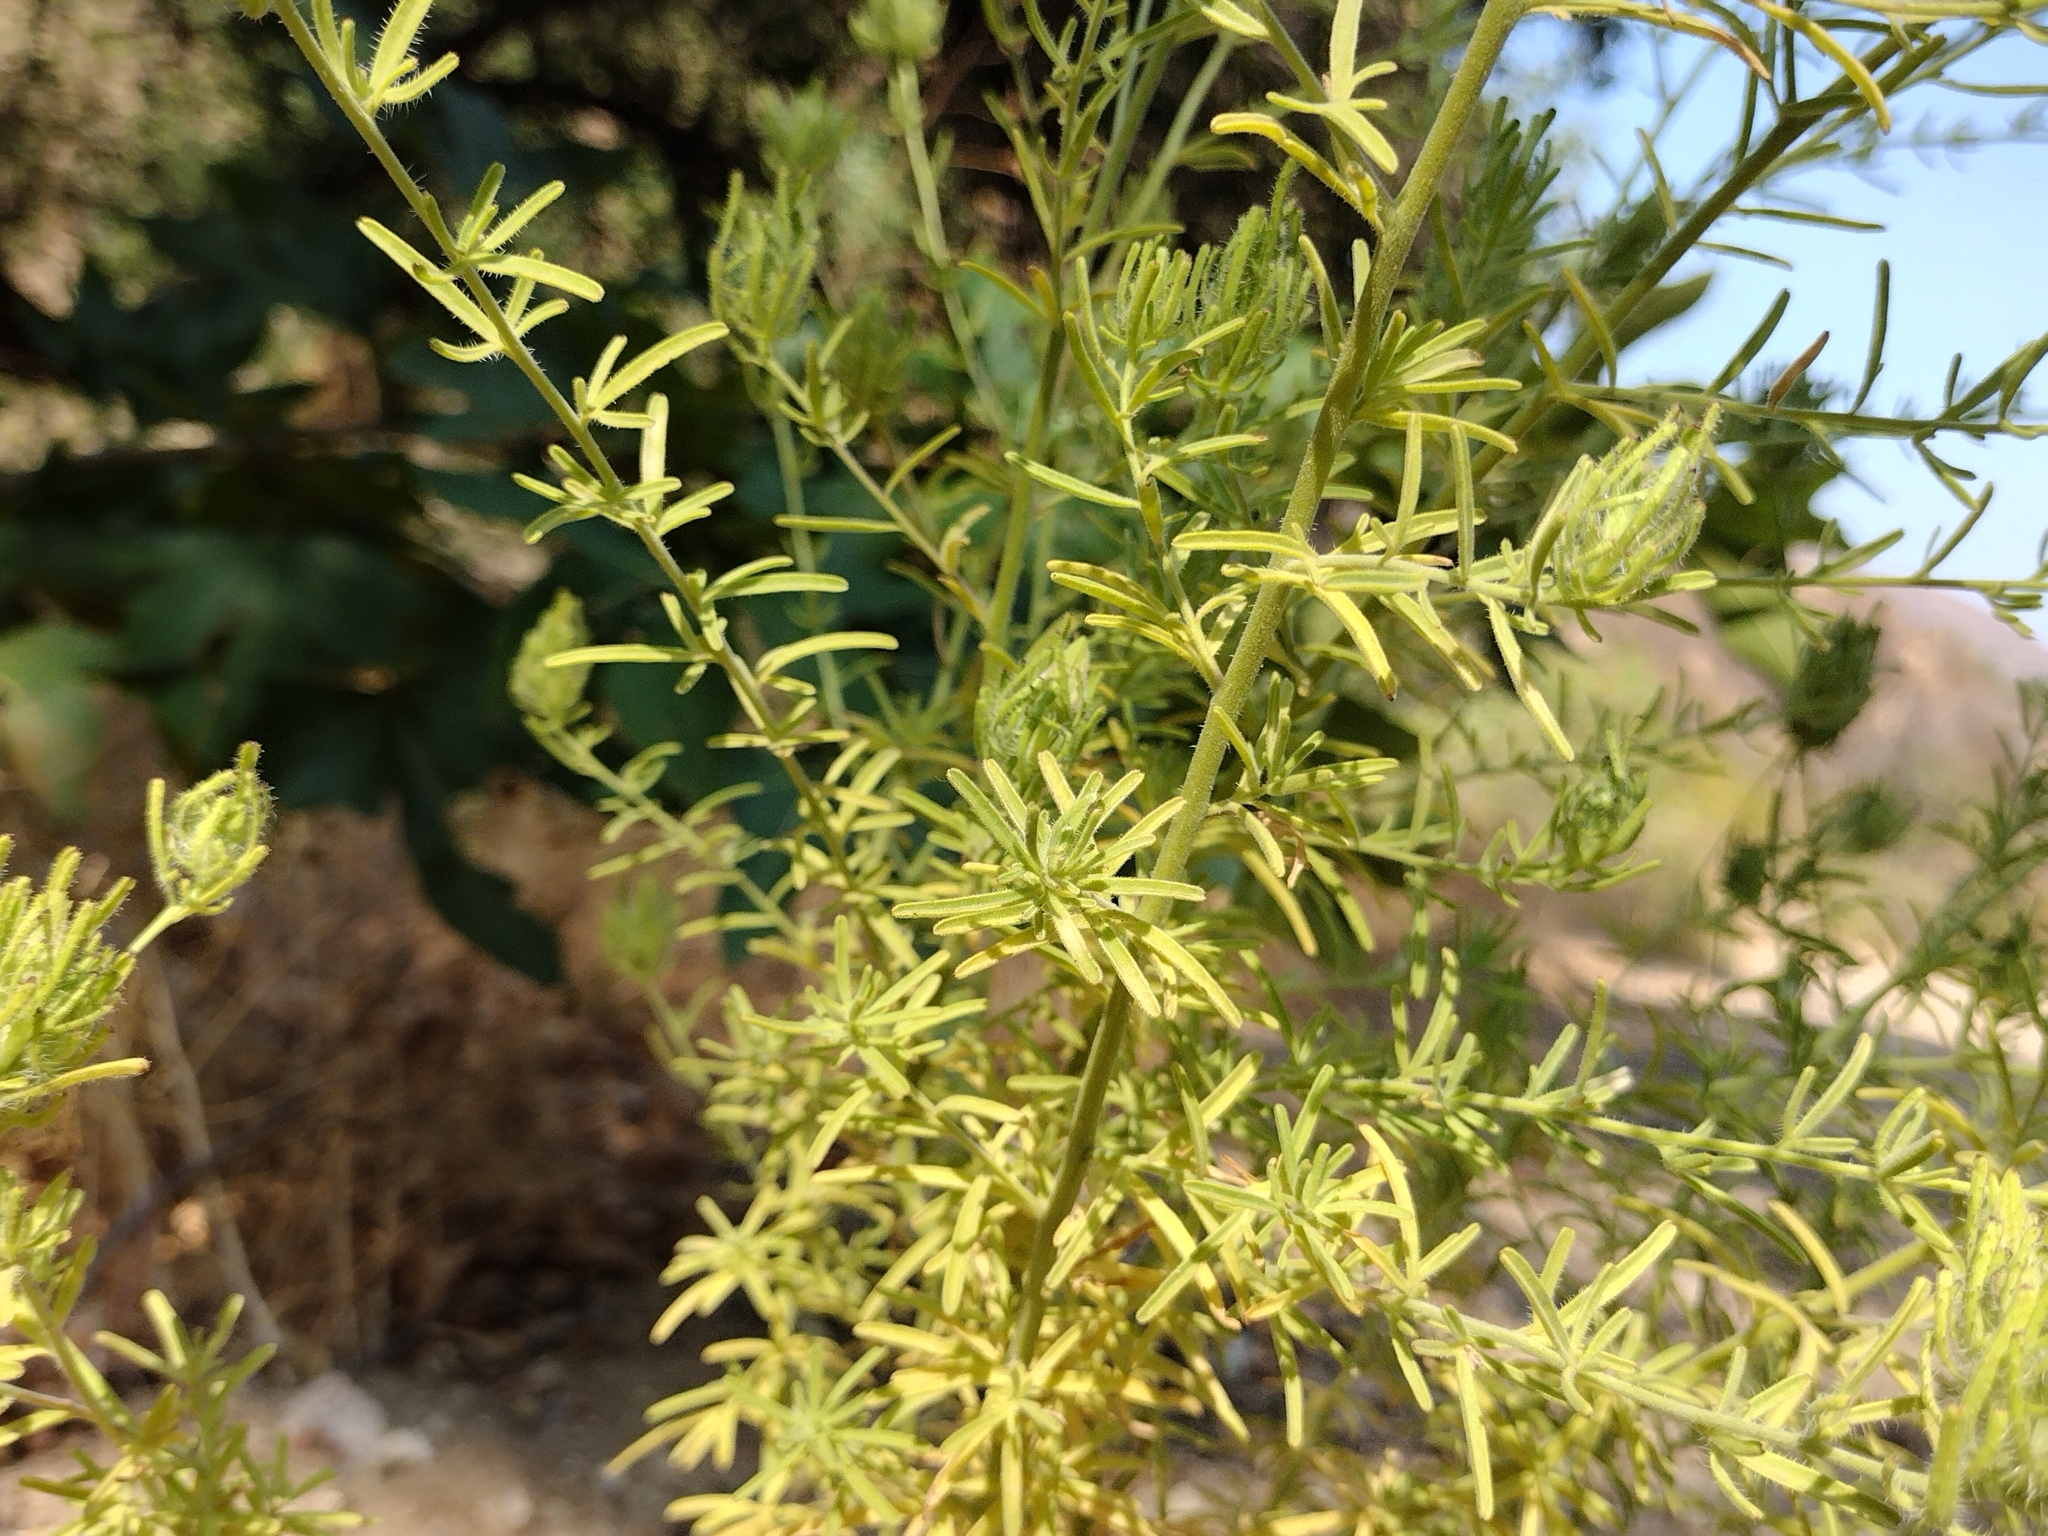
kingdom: Plantae
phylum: Tracheophyta
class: Magnoliopsida
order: Lamiales
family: Orobanchaceae
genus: Cordylanthus
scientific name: Cordylanthus rigidus
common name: Stiff-branch bird's-beak
